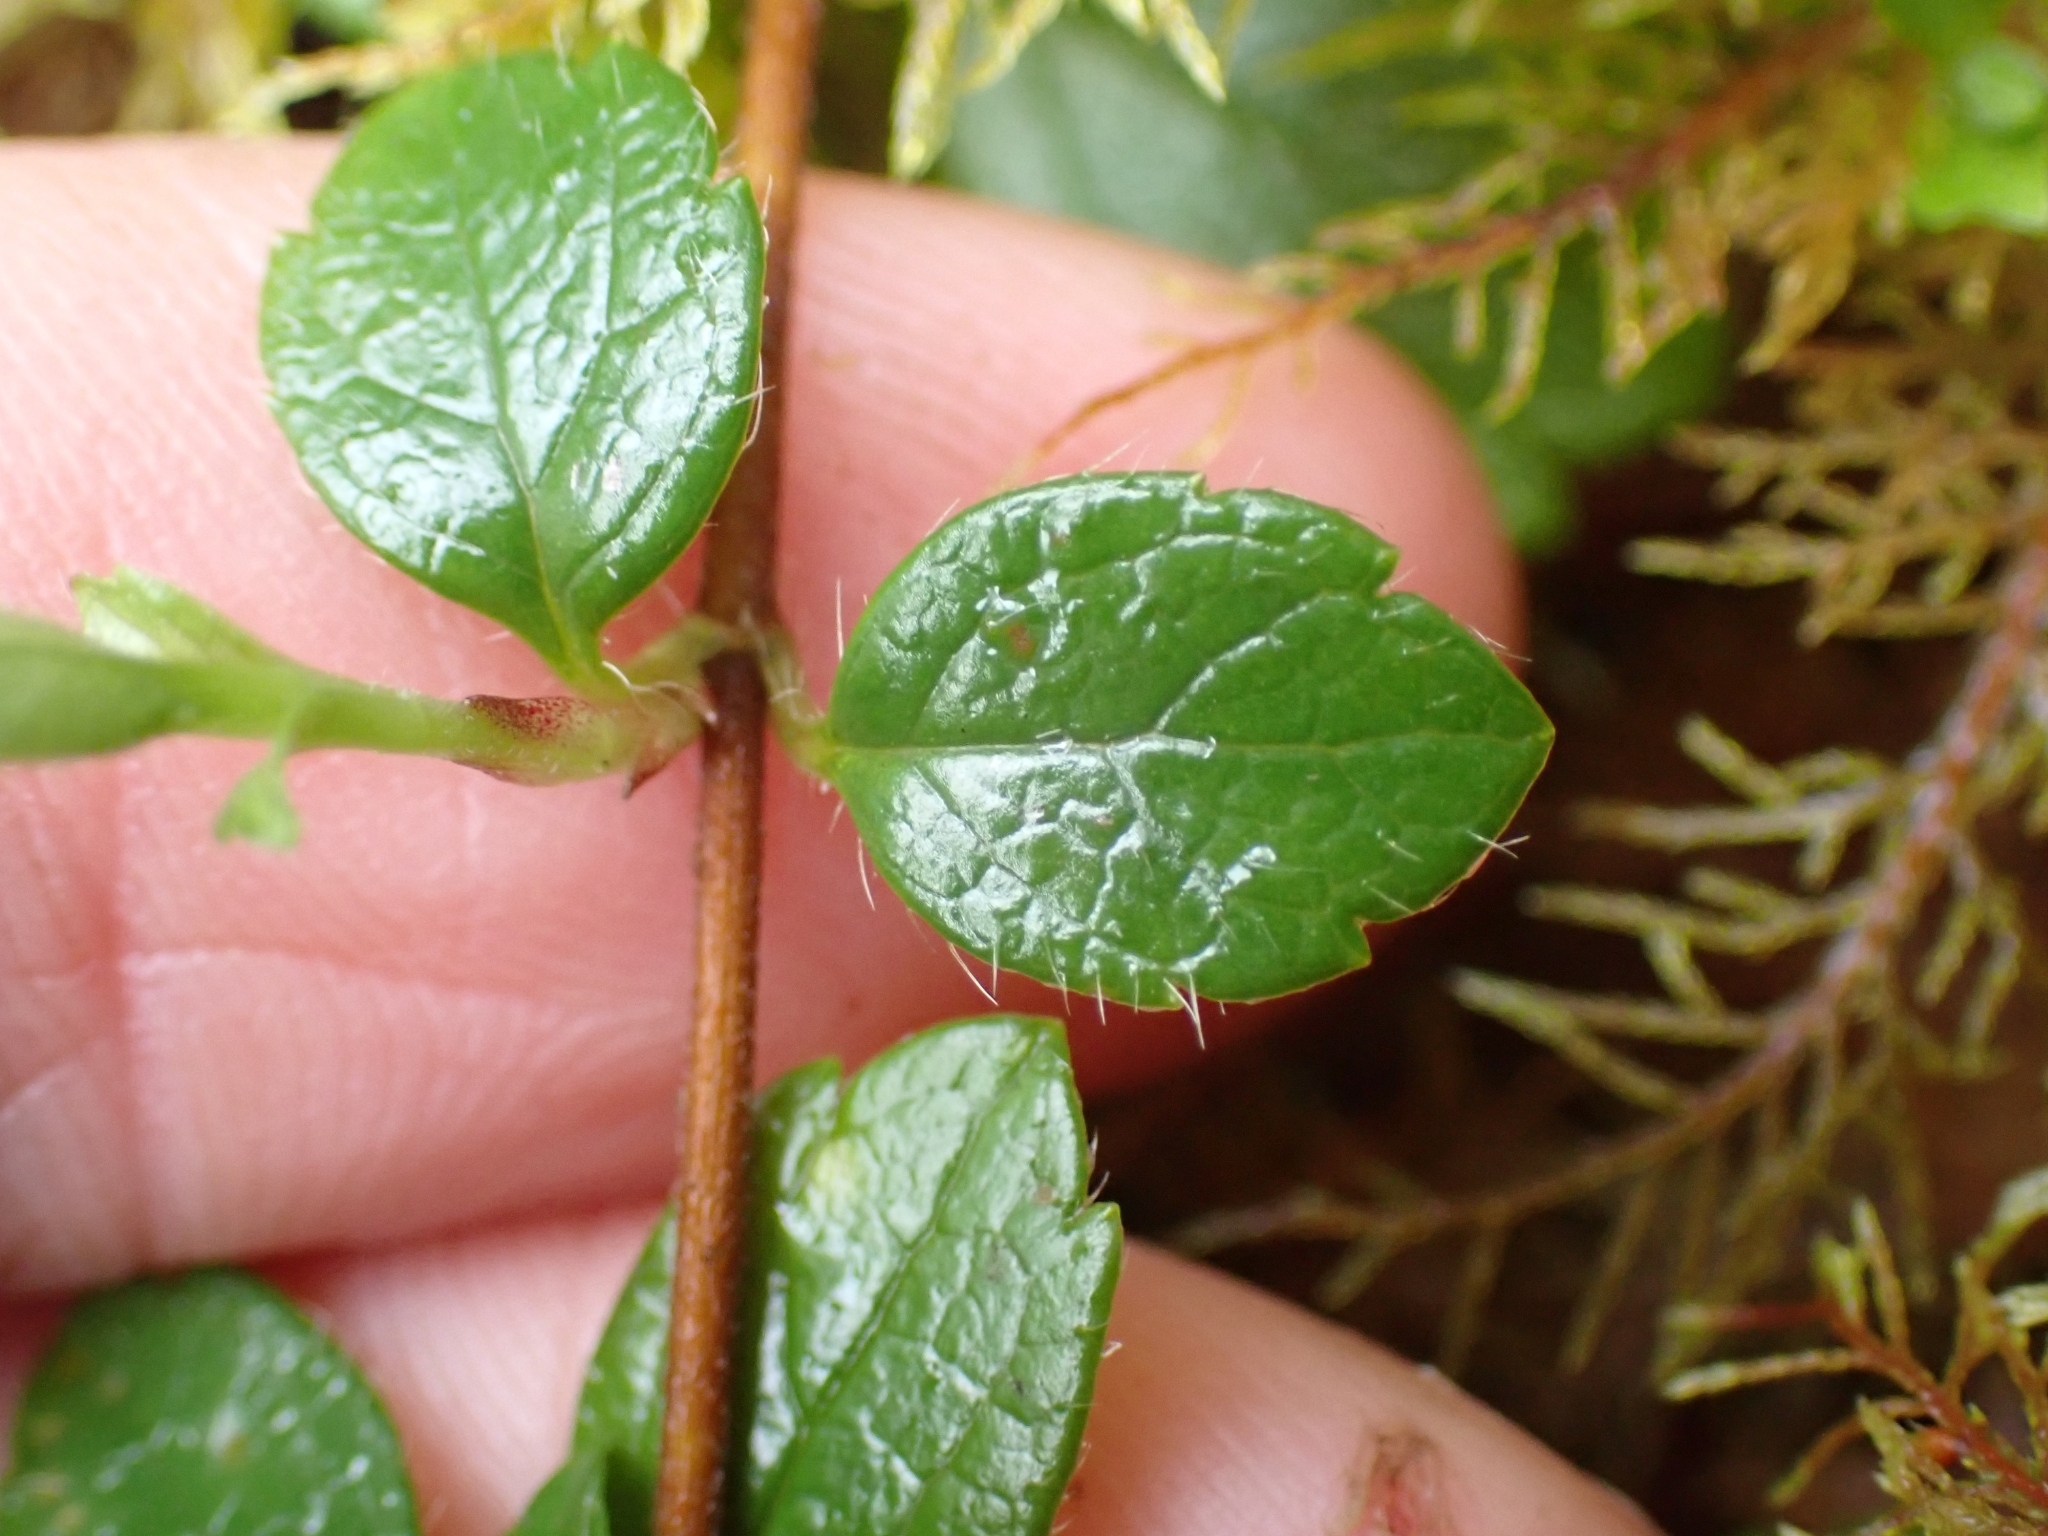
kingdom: Plantae
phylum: Tracheophyta
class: Magnoliopsida
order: Dipsacales
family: Caprifoliaceae
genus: Linnaea
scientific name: Linnaea borealis
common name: Twinflower
